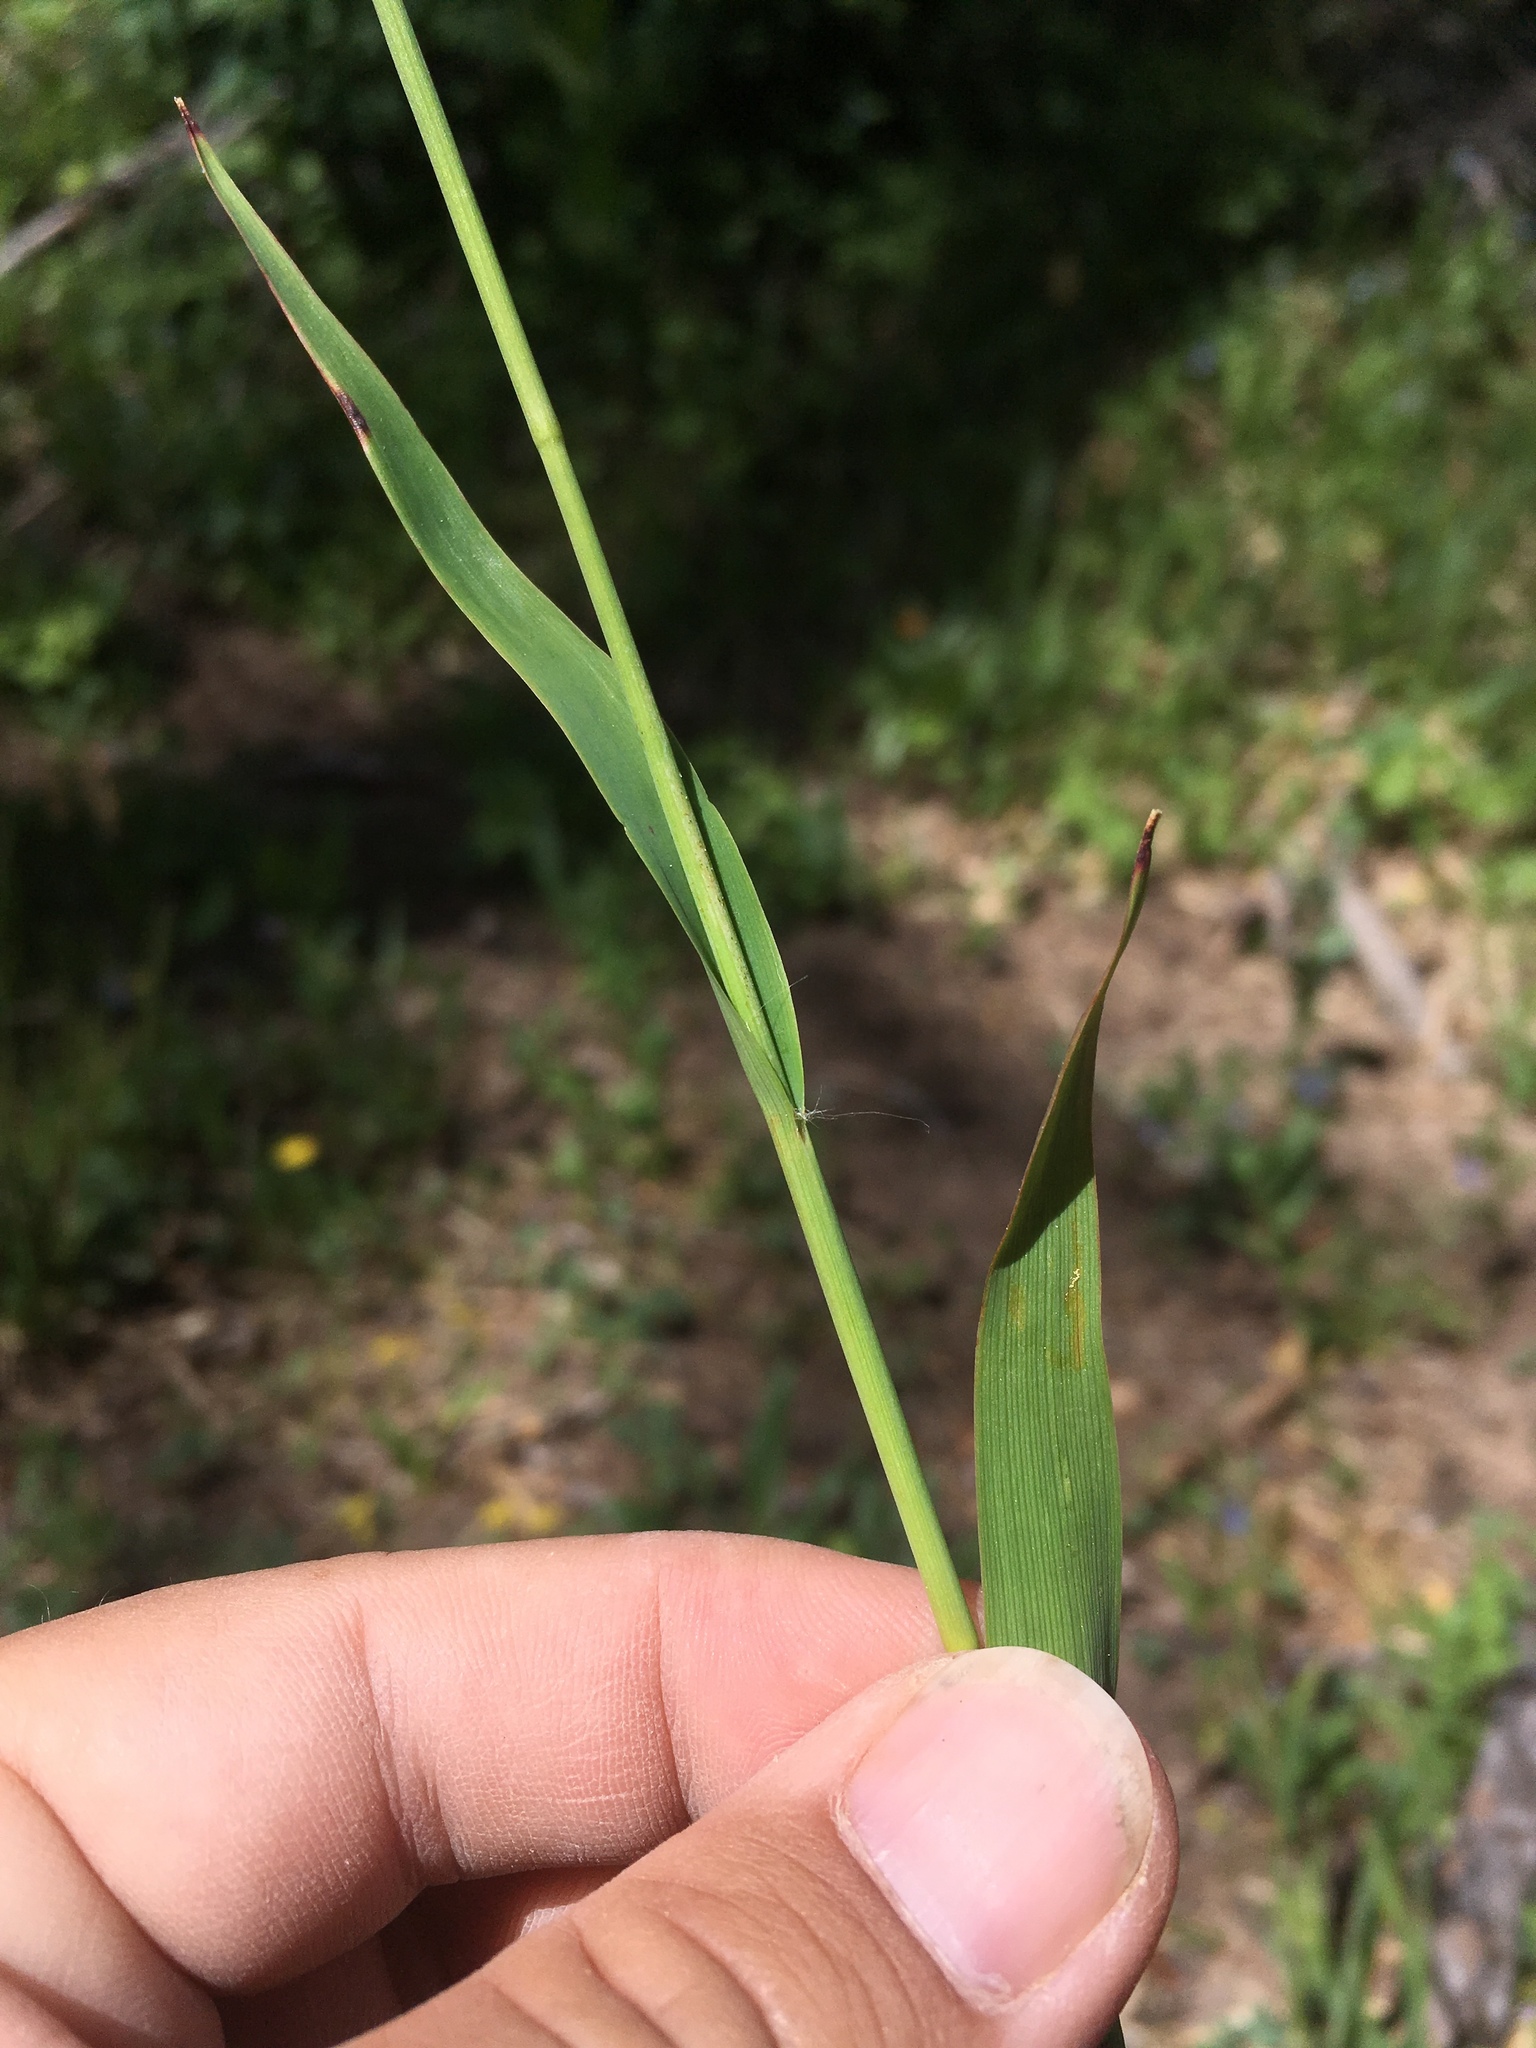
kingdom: Plantae
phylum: Tracheophyta
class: Liliopsida
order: Poales
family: Juncaceae
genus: Luzula
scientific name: Luzula parviflora
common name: Millet woodrush
